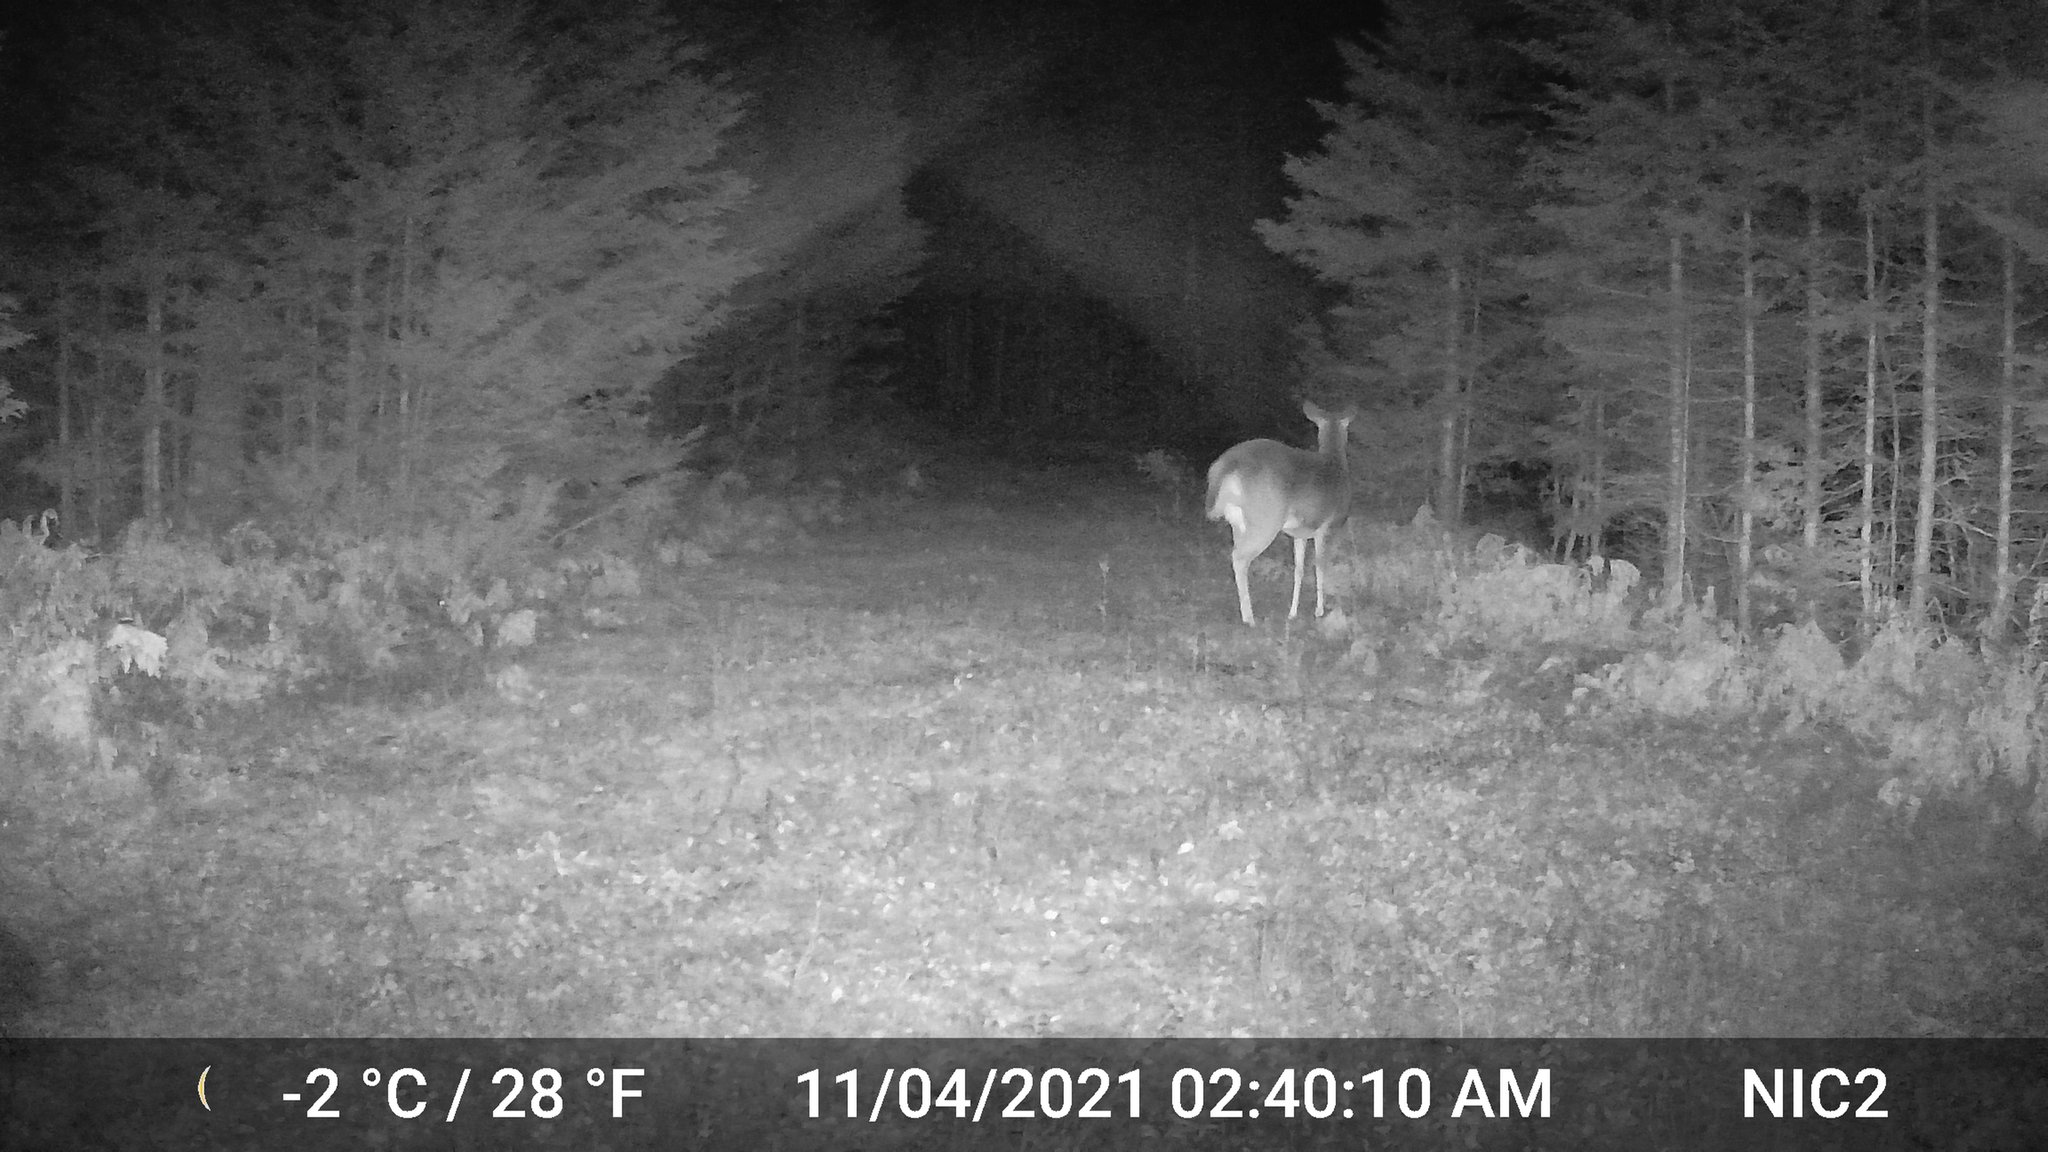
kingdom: Animalia
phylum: Chordata
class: Mammalia
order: Artiodactyla
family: Cervidae
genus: Odocoileus
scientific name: Odocoileus virginianus
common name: White-tailed deer
